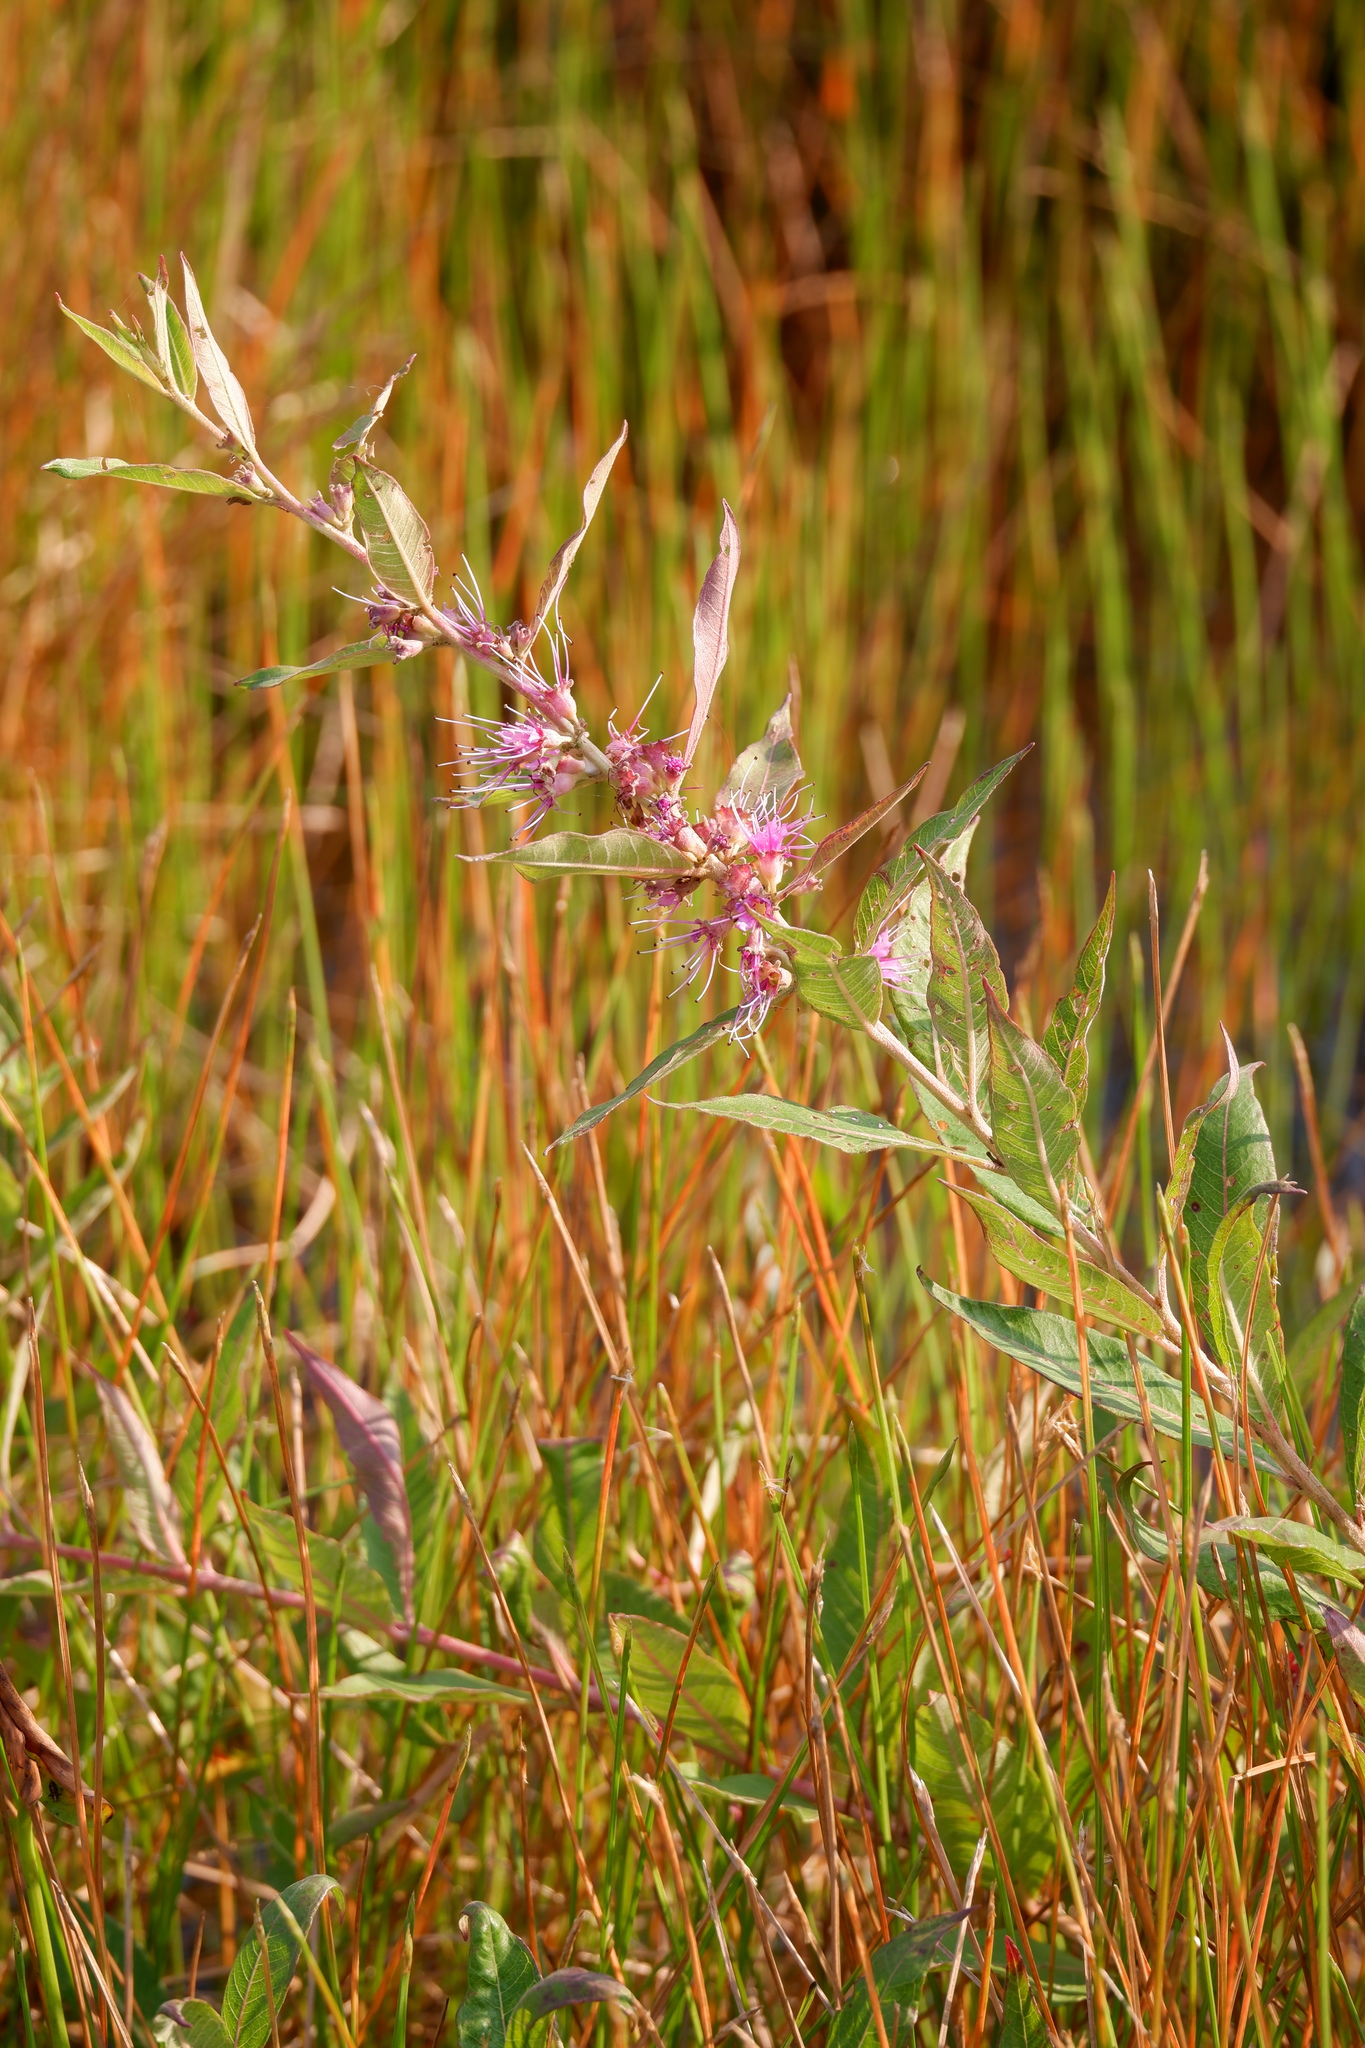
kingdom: Plantae
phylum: Tracheophyta
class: Magnoliopsida
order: Myrtales
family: Lythraceae
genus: Decodon
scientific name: Decodon verticillatus
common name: Hairy swamp loosestrife
